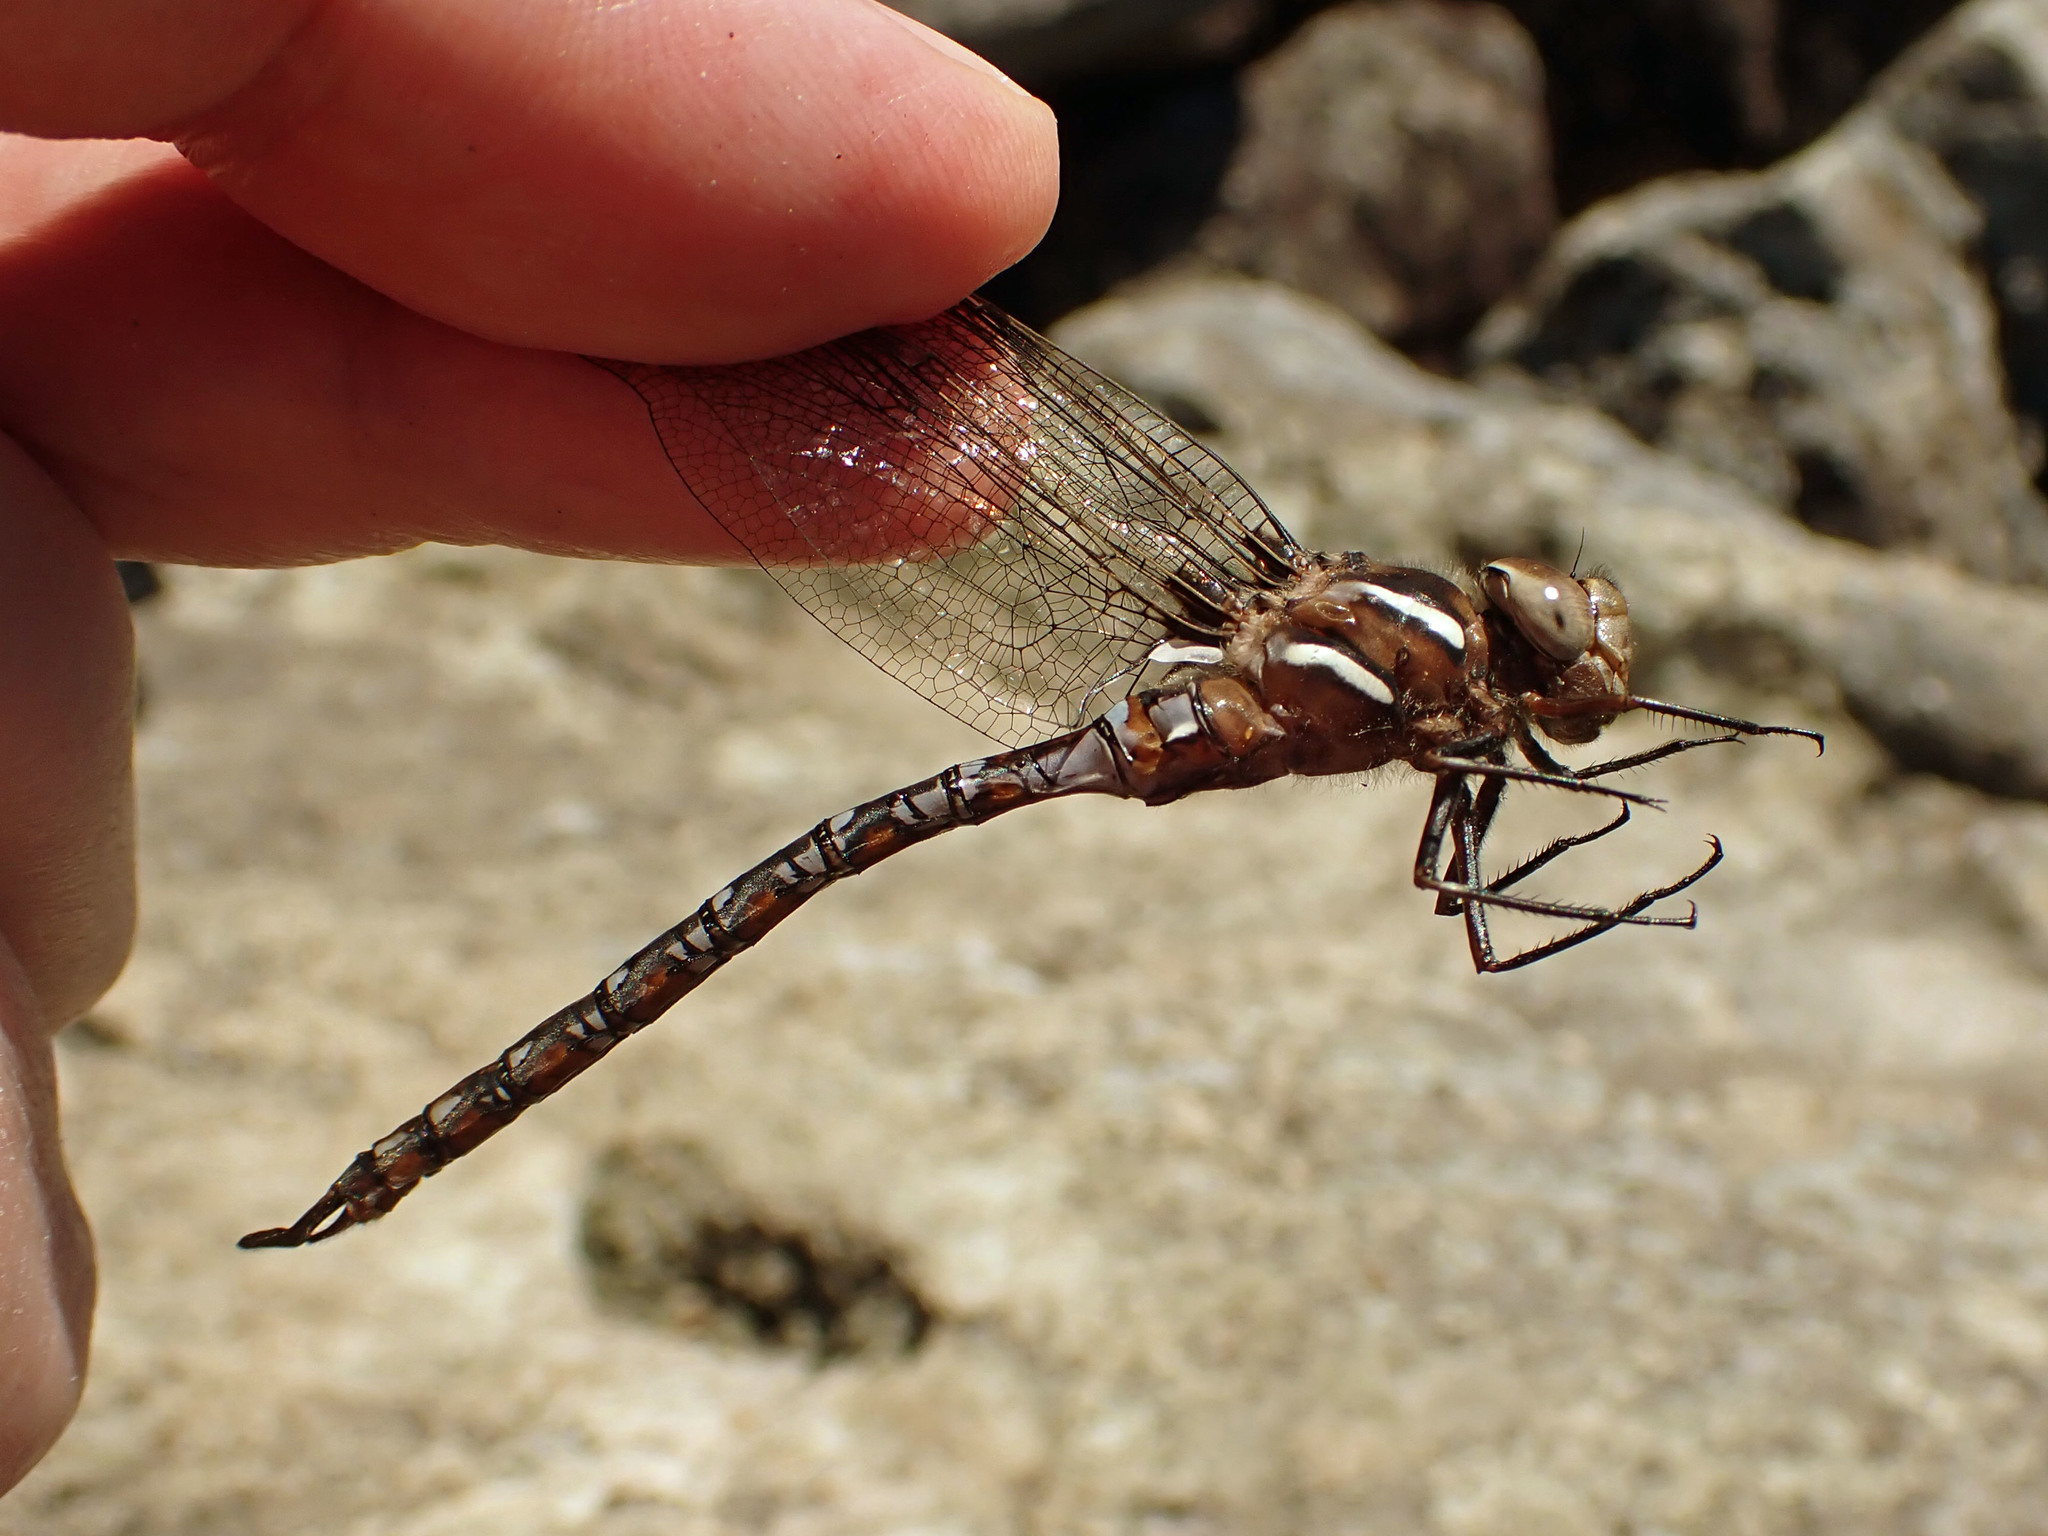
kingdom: Animalia
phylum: Arthropoda
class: Insecta
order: Odonata
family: Aeshnidae
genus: Basiaeschna
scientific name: Basiaeschna janata
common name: Springtime darner
